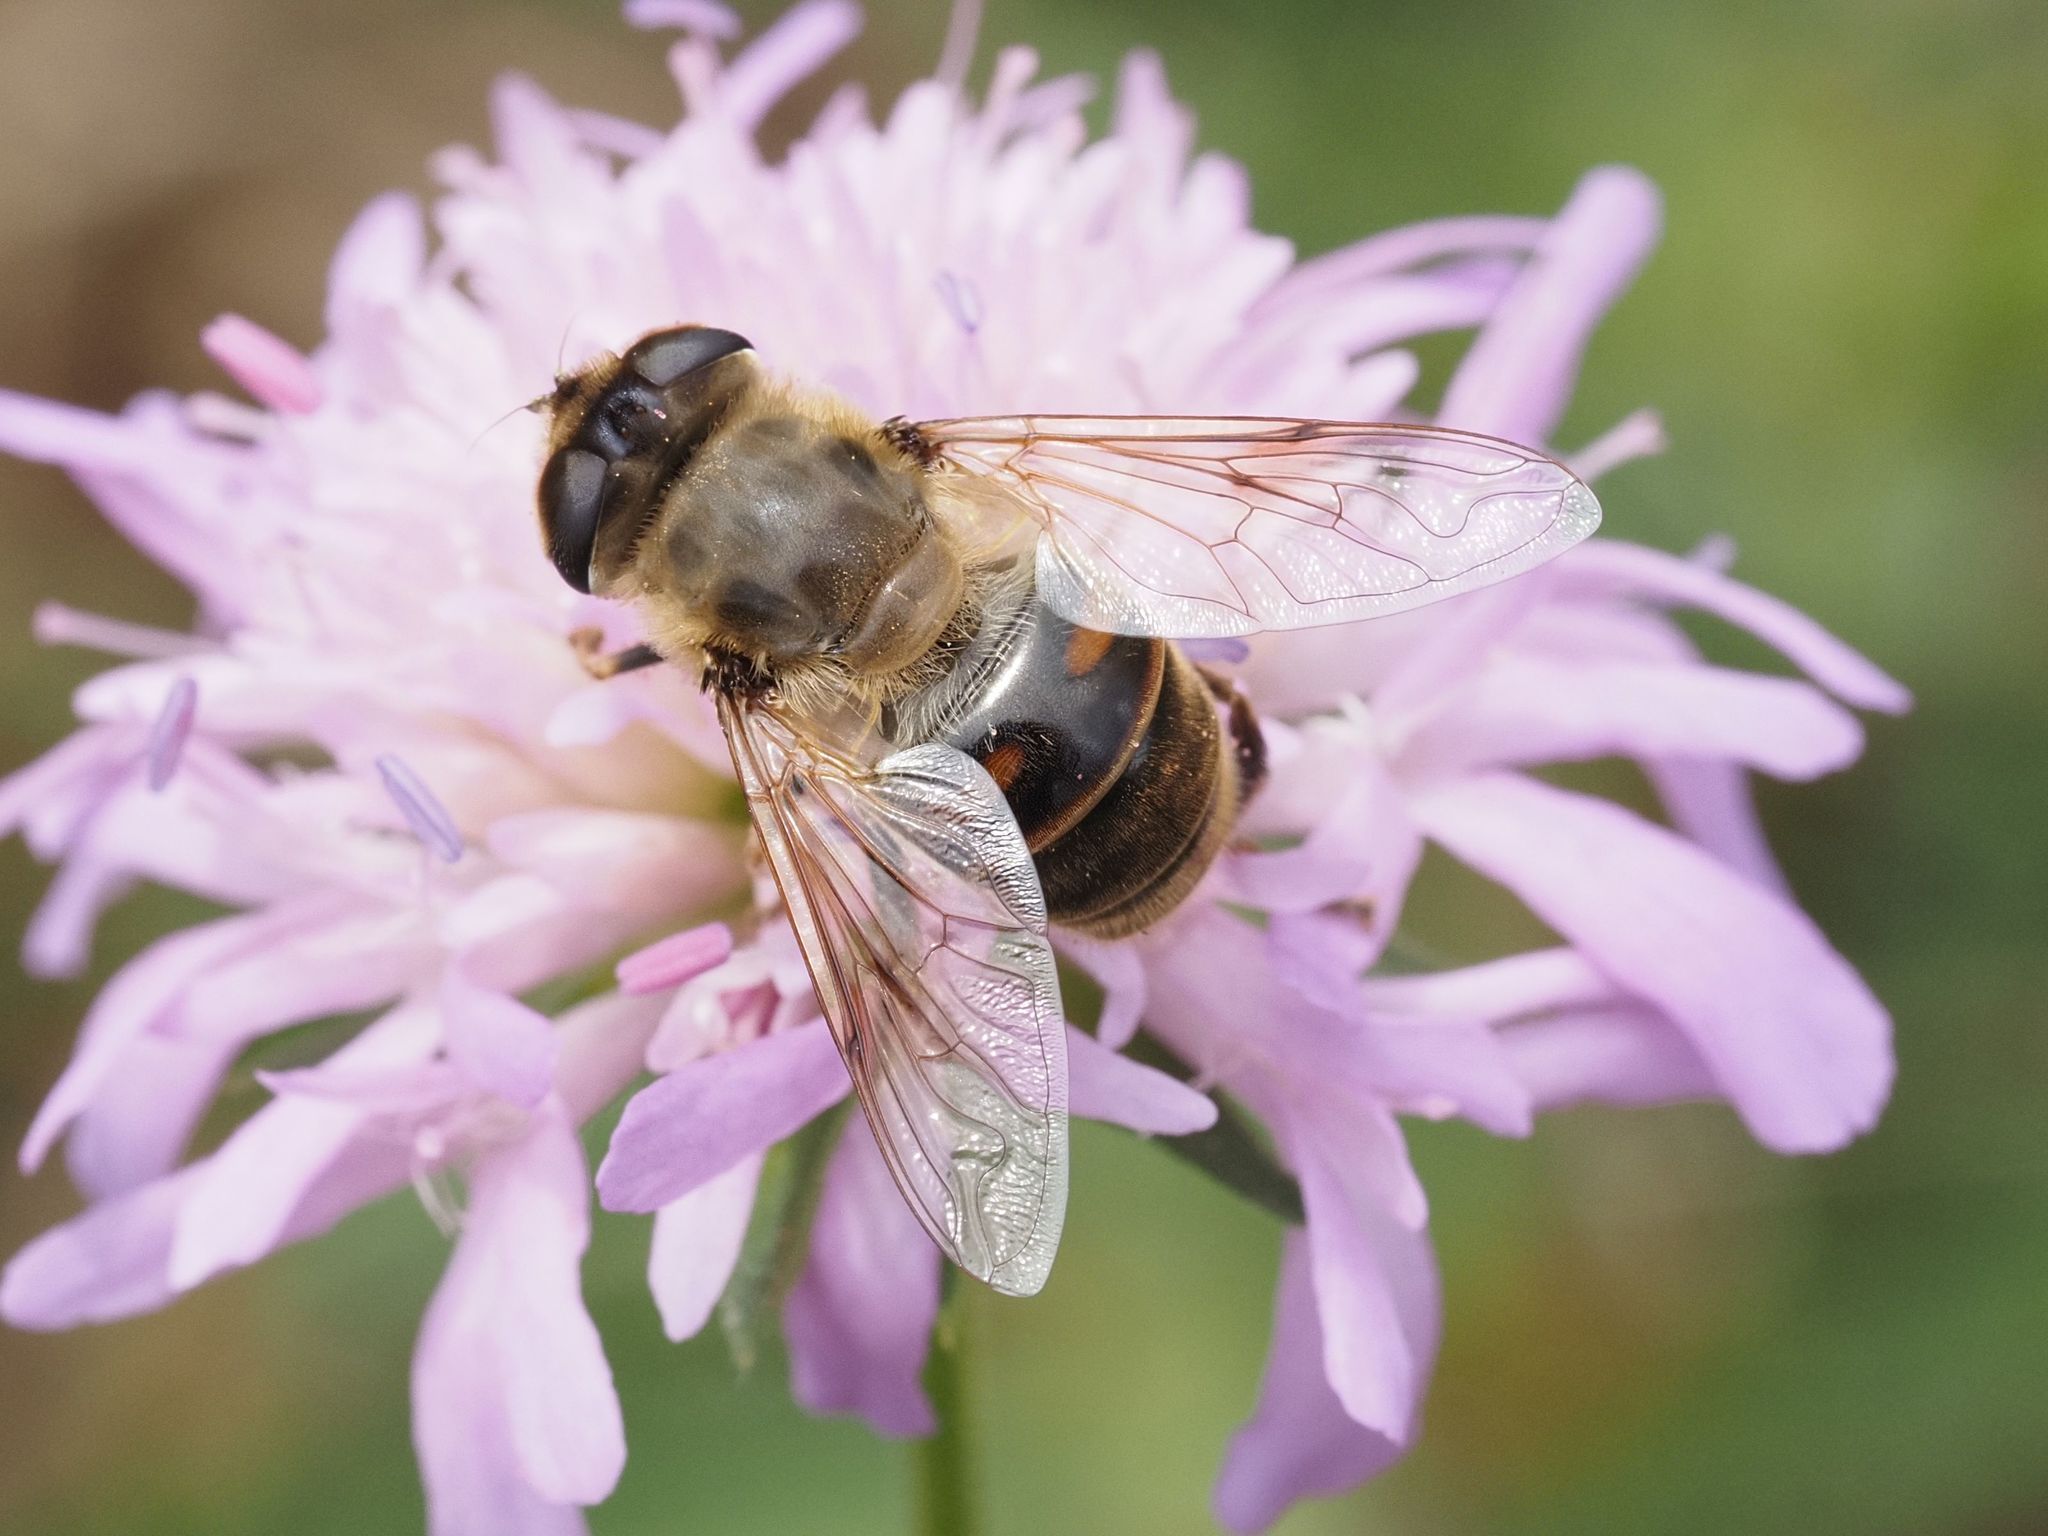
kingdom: Animalia
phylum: Arthropoda
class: Insecta
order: Diptera
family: Syrphidae
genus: Eristalis
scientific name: Eristalis tenax
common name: Drone fly
